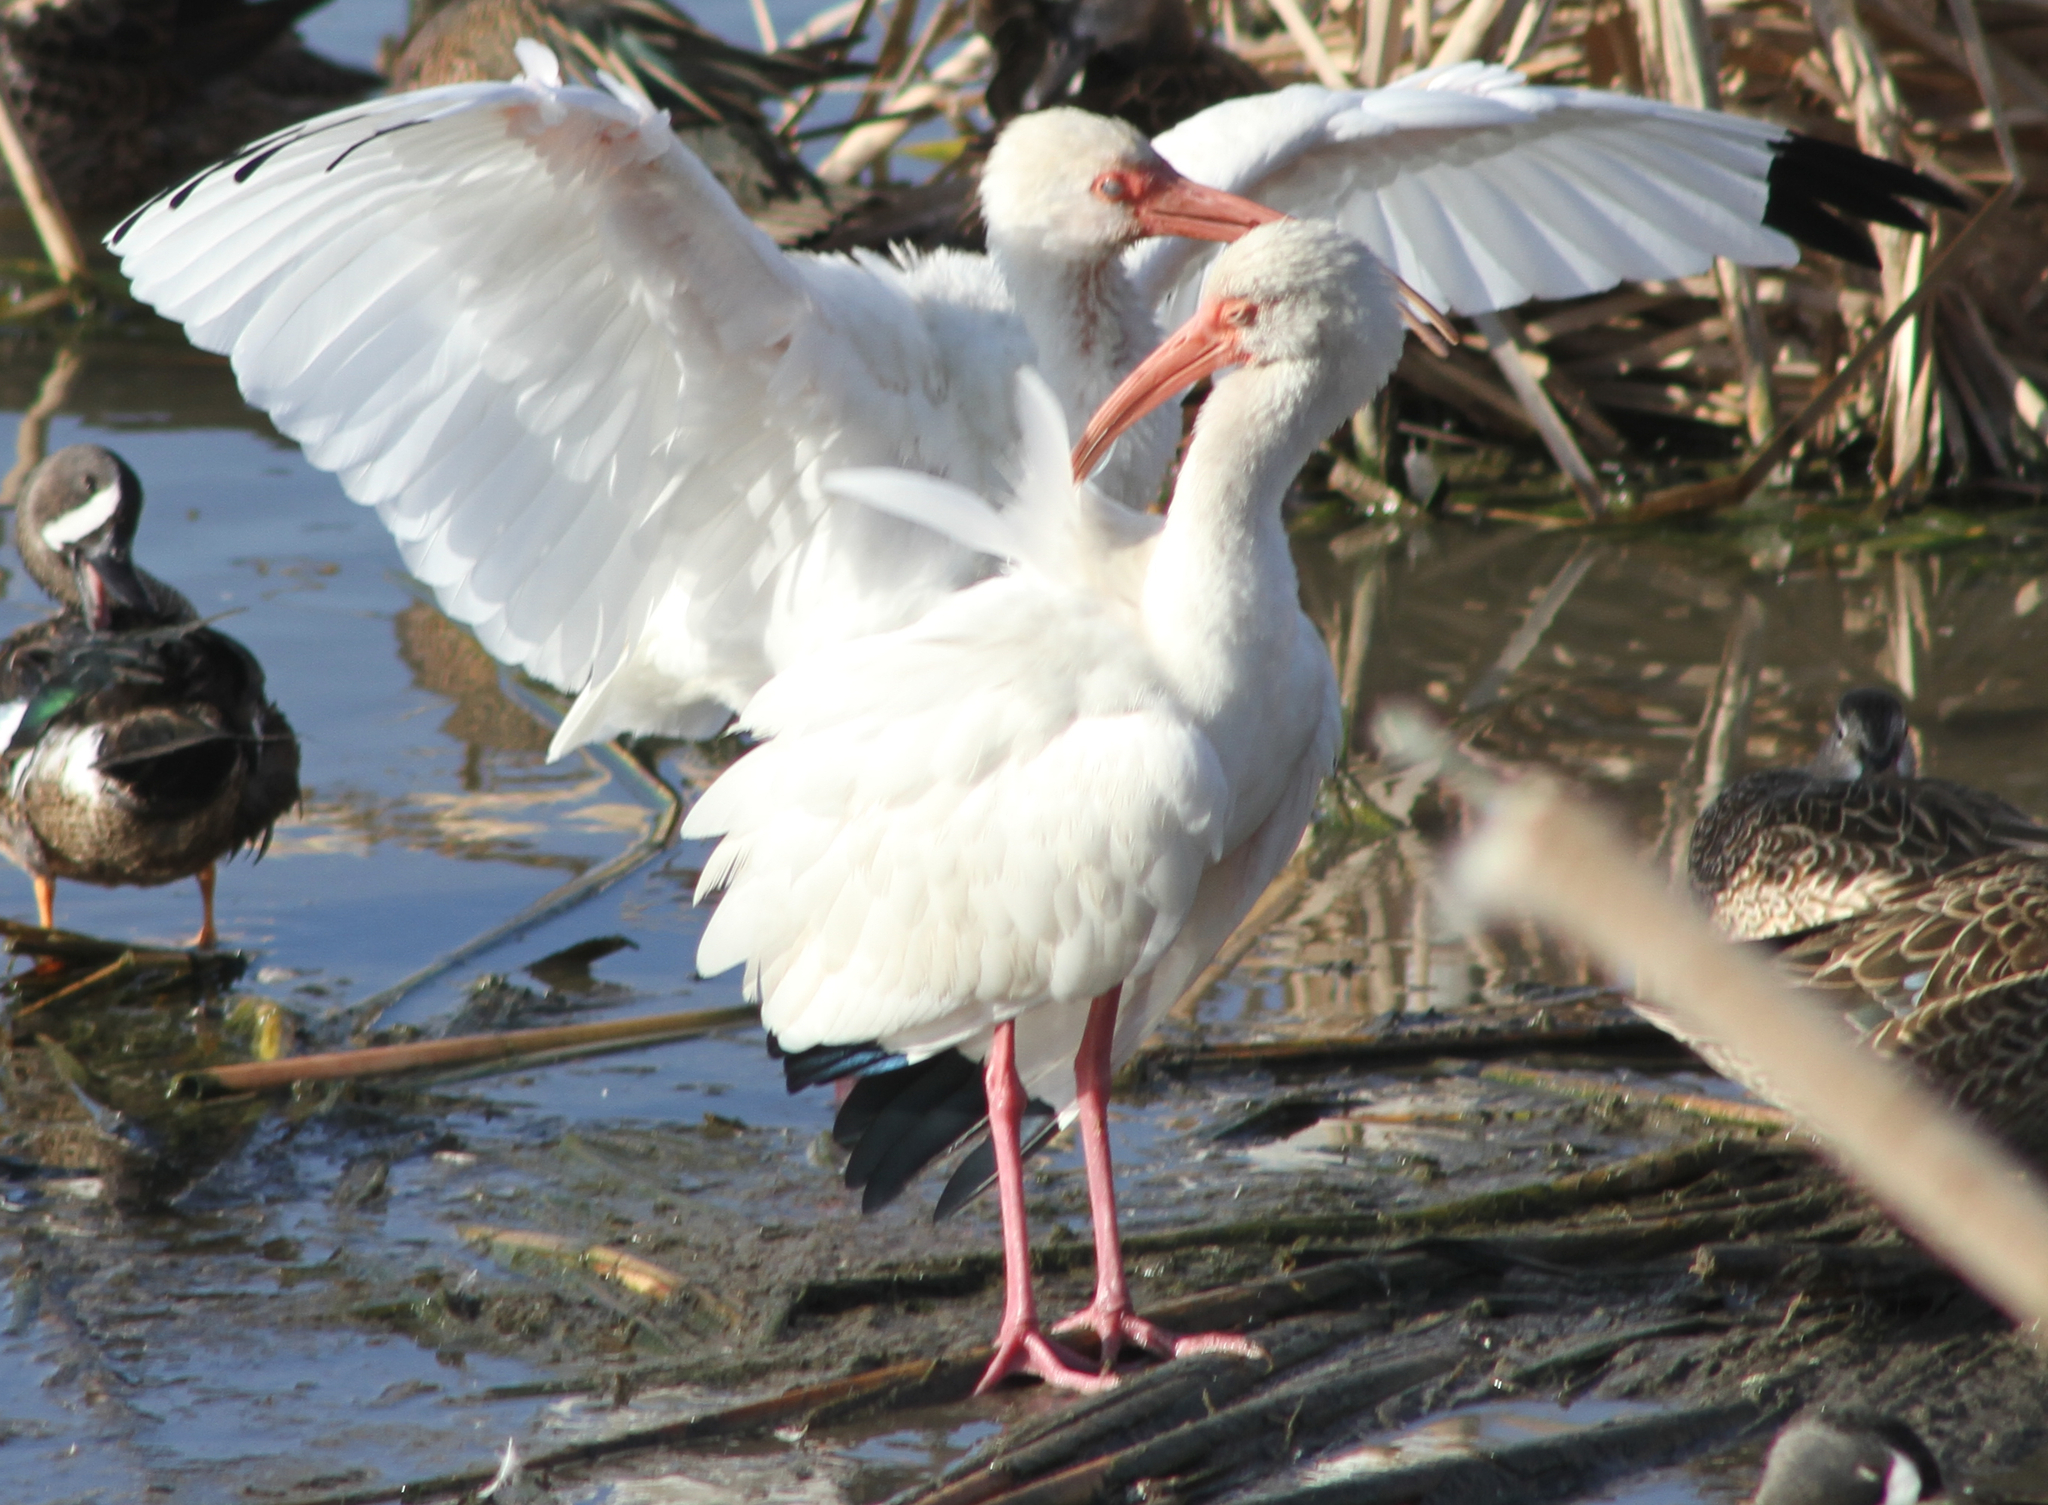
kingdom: Animalia
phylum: Chordata
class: Aves
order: Pelecaniformes
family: Threskiornithidae
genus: Eudocimus
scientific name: Eudocimus albus
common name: White ibis
